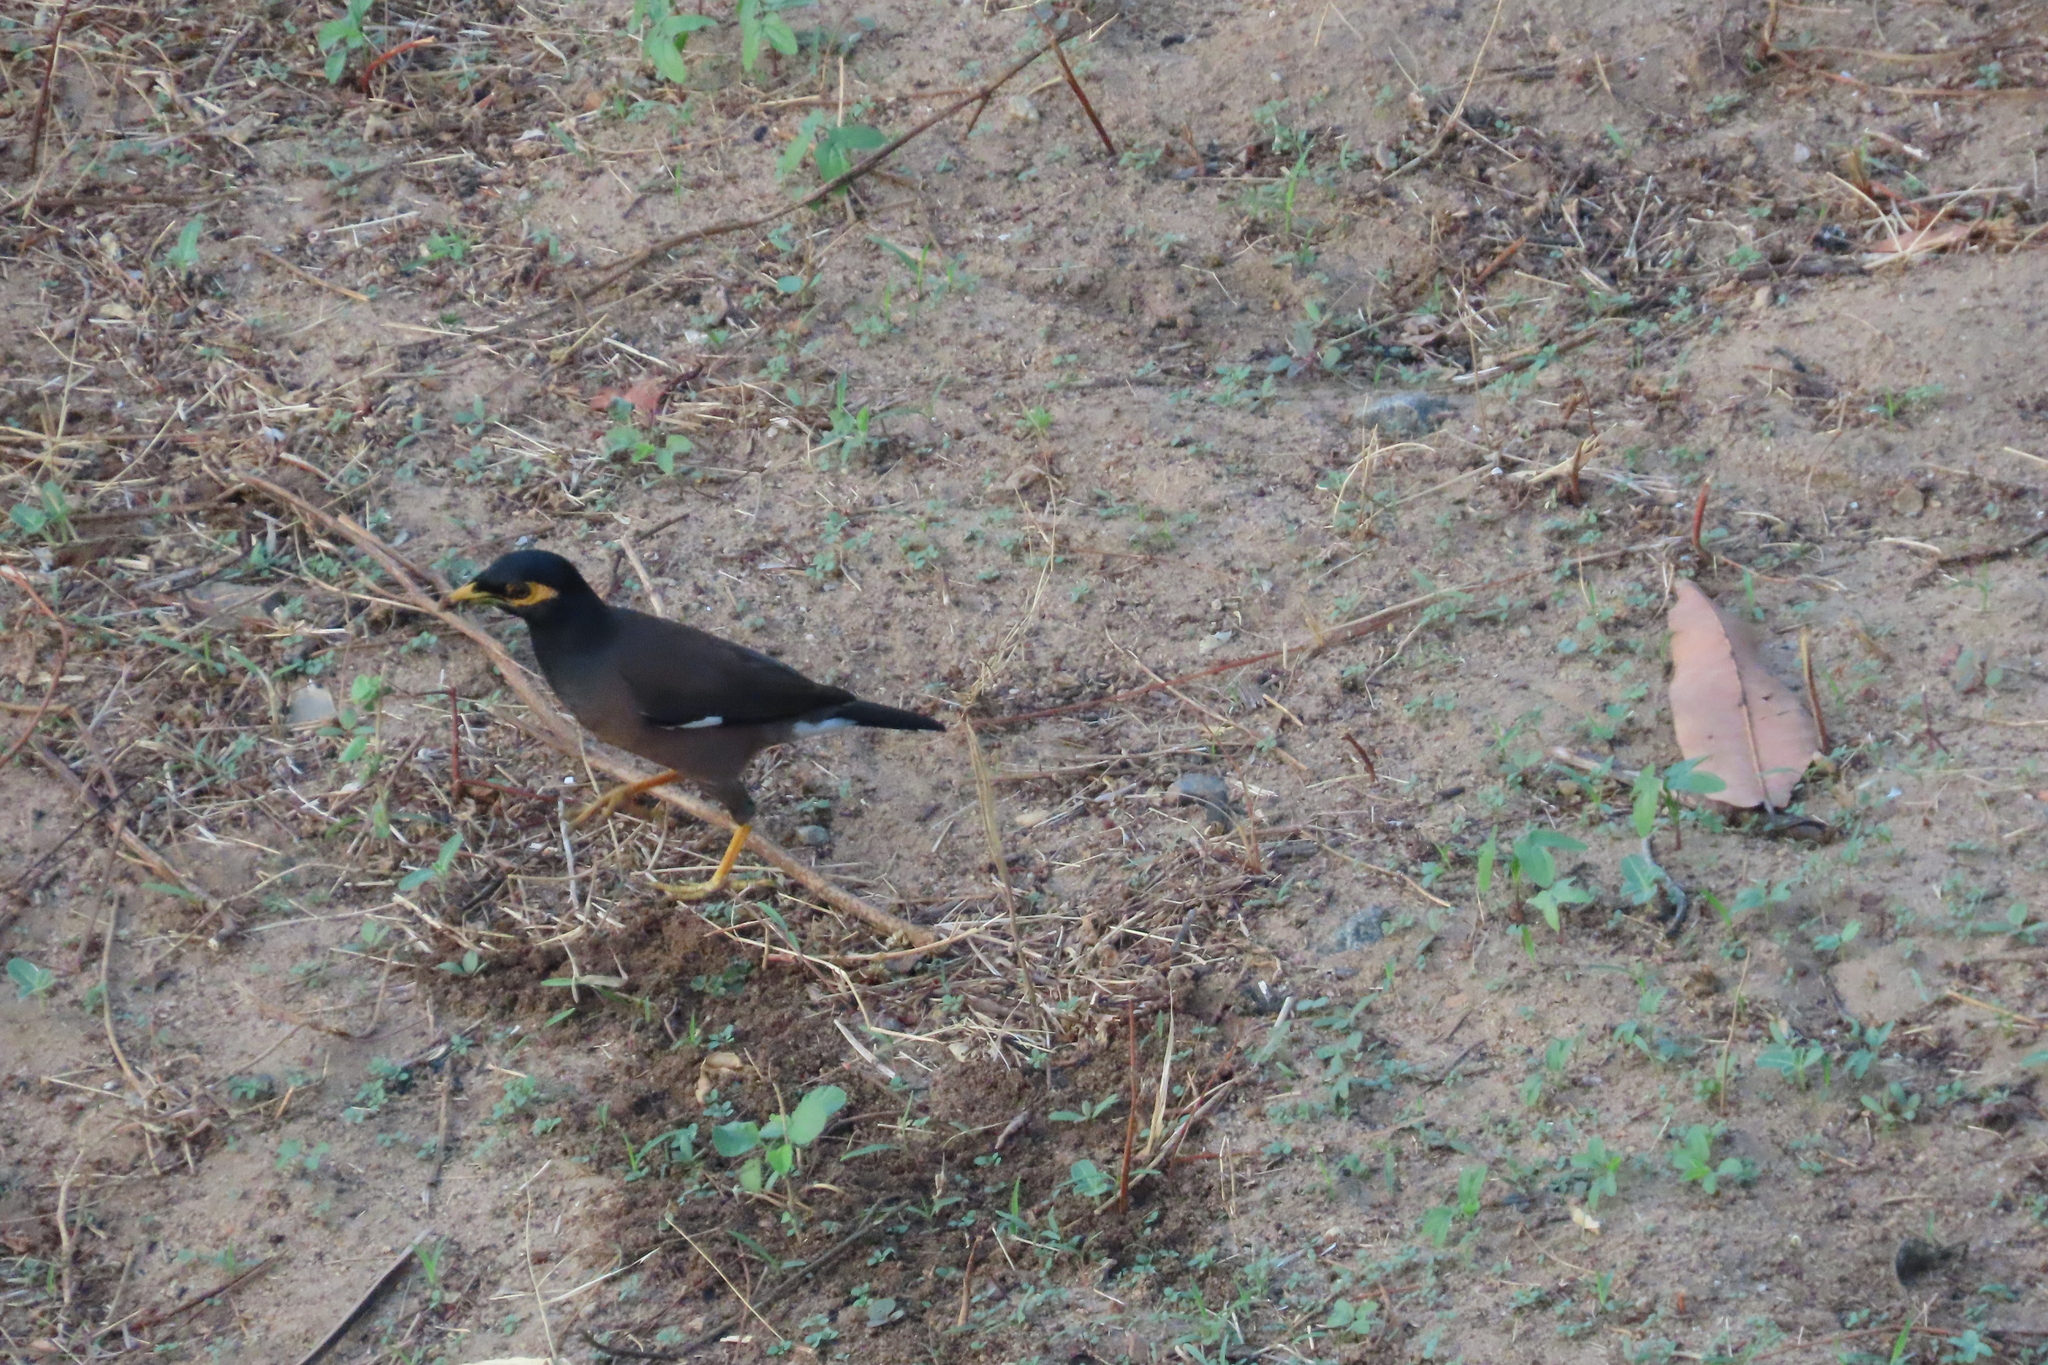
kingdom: Animalia
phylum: Chordata
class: Aves
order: Passeriformes
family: Sturnidae
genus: Acridotheres
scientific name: Acridotheres tristis
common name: Common myna
